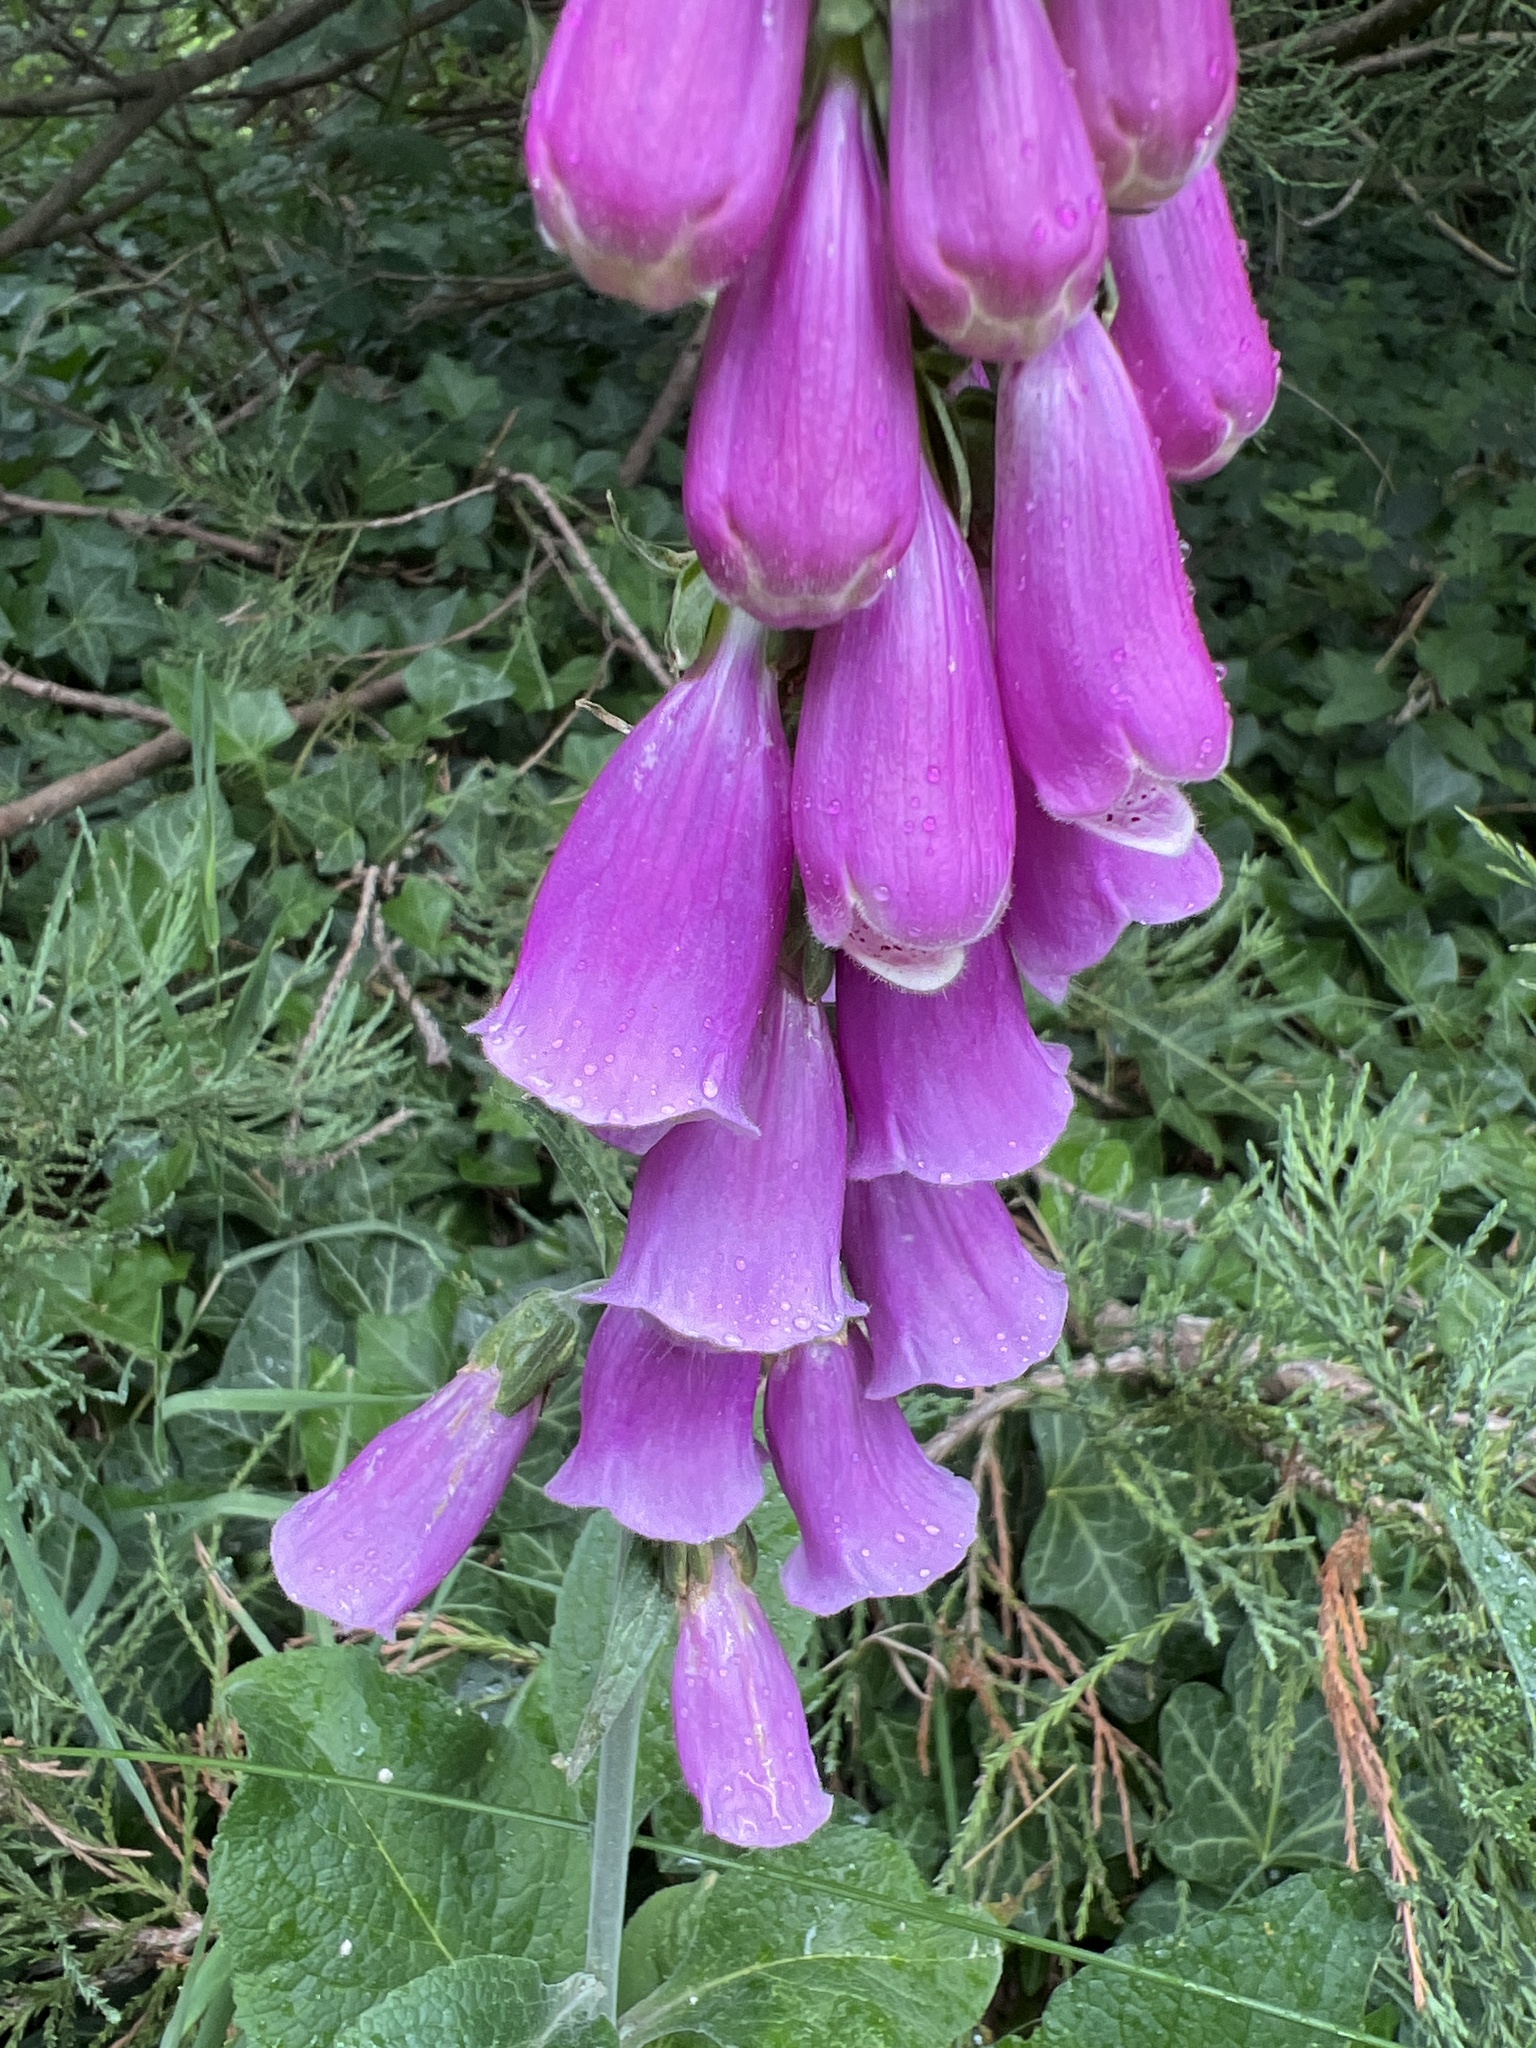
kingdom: Plantae
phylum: Tracheophyta
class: Magnoliopsida
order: Lamiales
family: Plantaginaceae
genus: Digitalis
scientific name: Digitalis purpurea
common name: Foxglove
